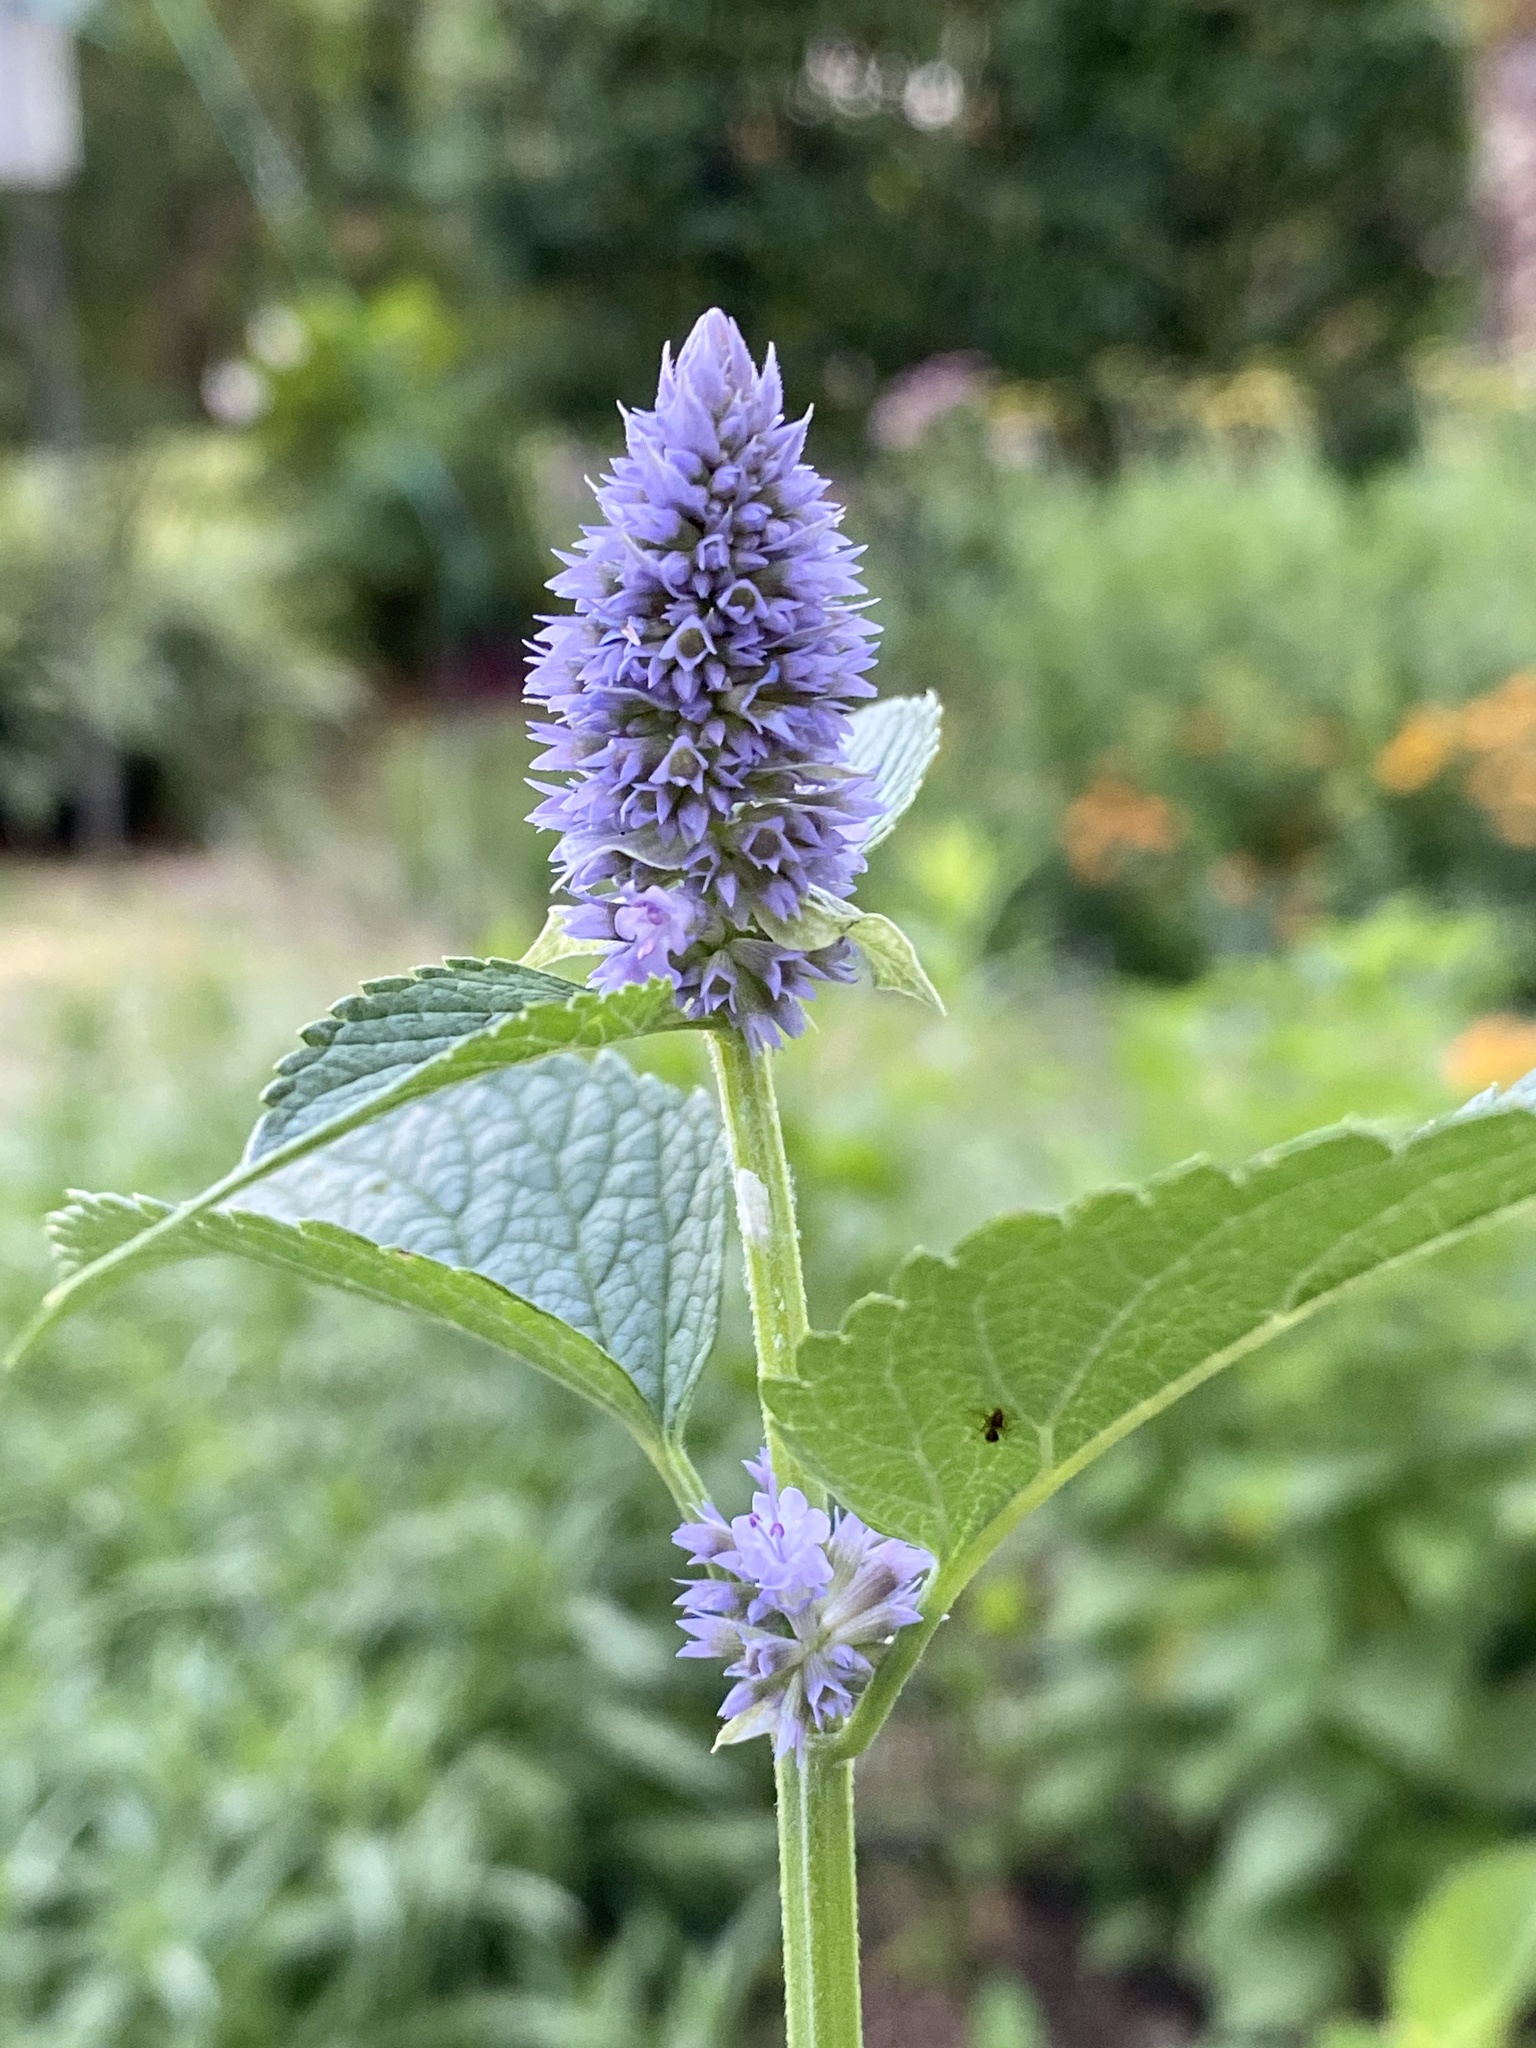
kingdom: Plantae
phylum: Tracheophyta
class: Magnoliopsida
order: Lamiales
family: Lamiaceae
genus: Agastache
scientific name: Agastache foeniculum
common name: Anise hyssop
